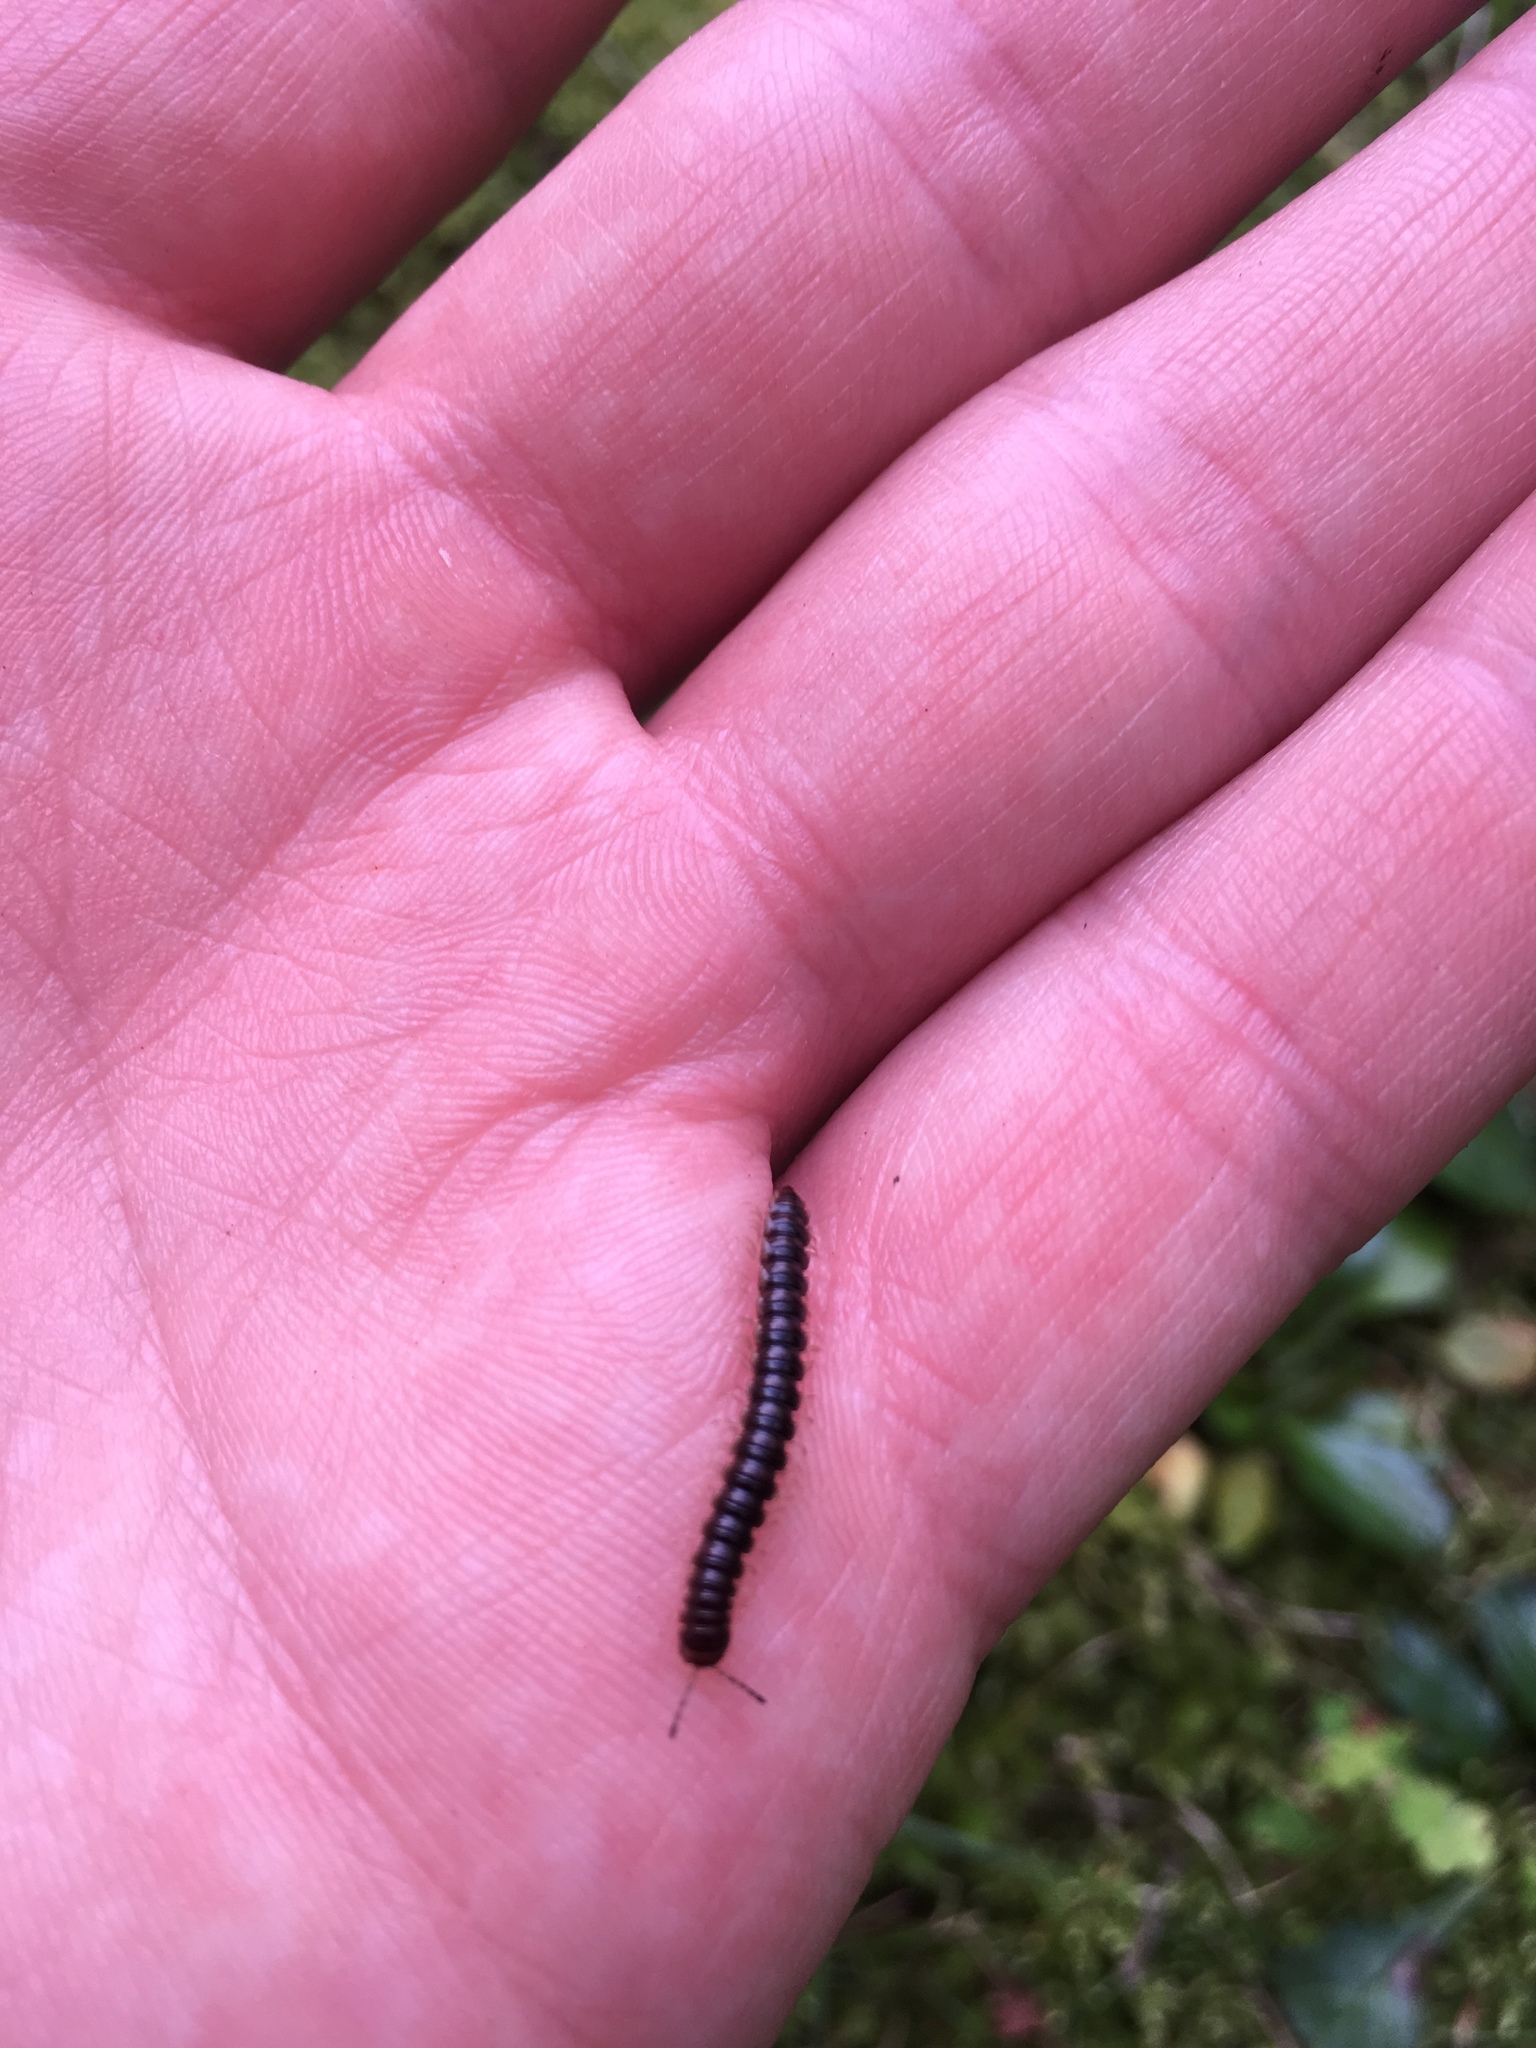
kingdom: Animalia
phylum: Arthropoda
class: Diplopoda
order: Polydesmida
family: Paradoxosomatidae
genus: Oxidus
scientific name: Oxidus gracilis
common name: Greenhouse millipede
